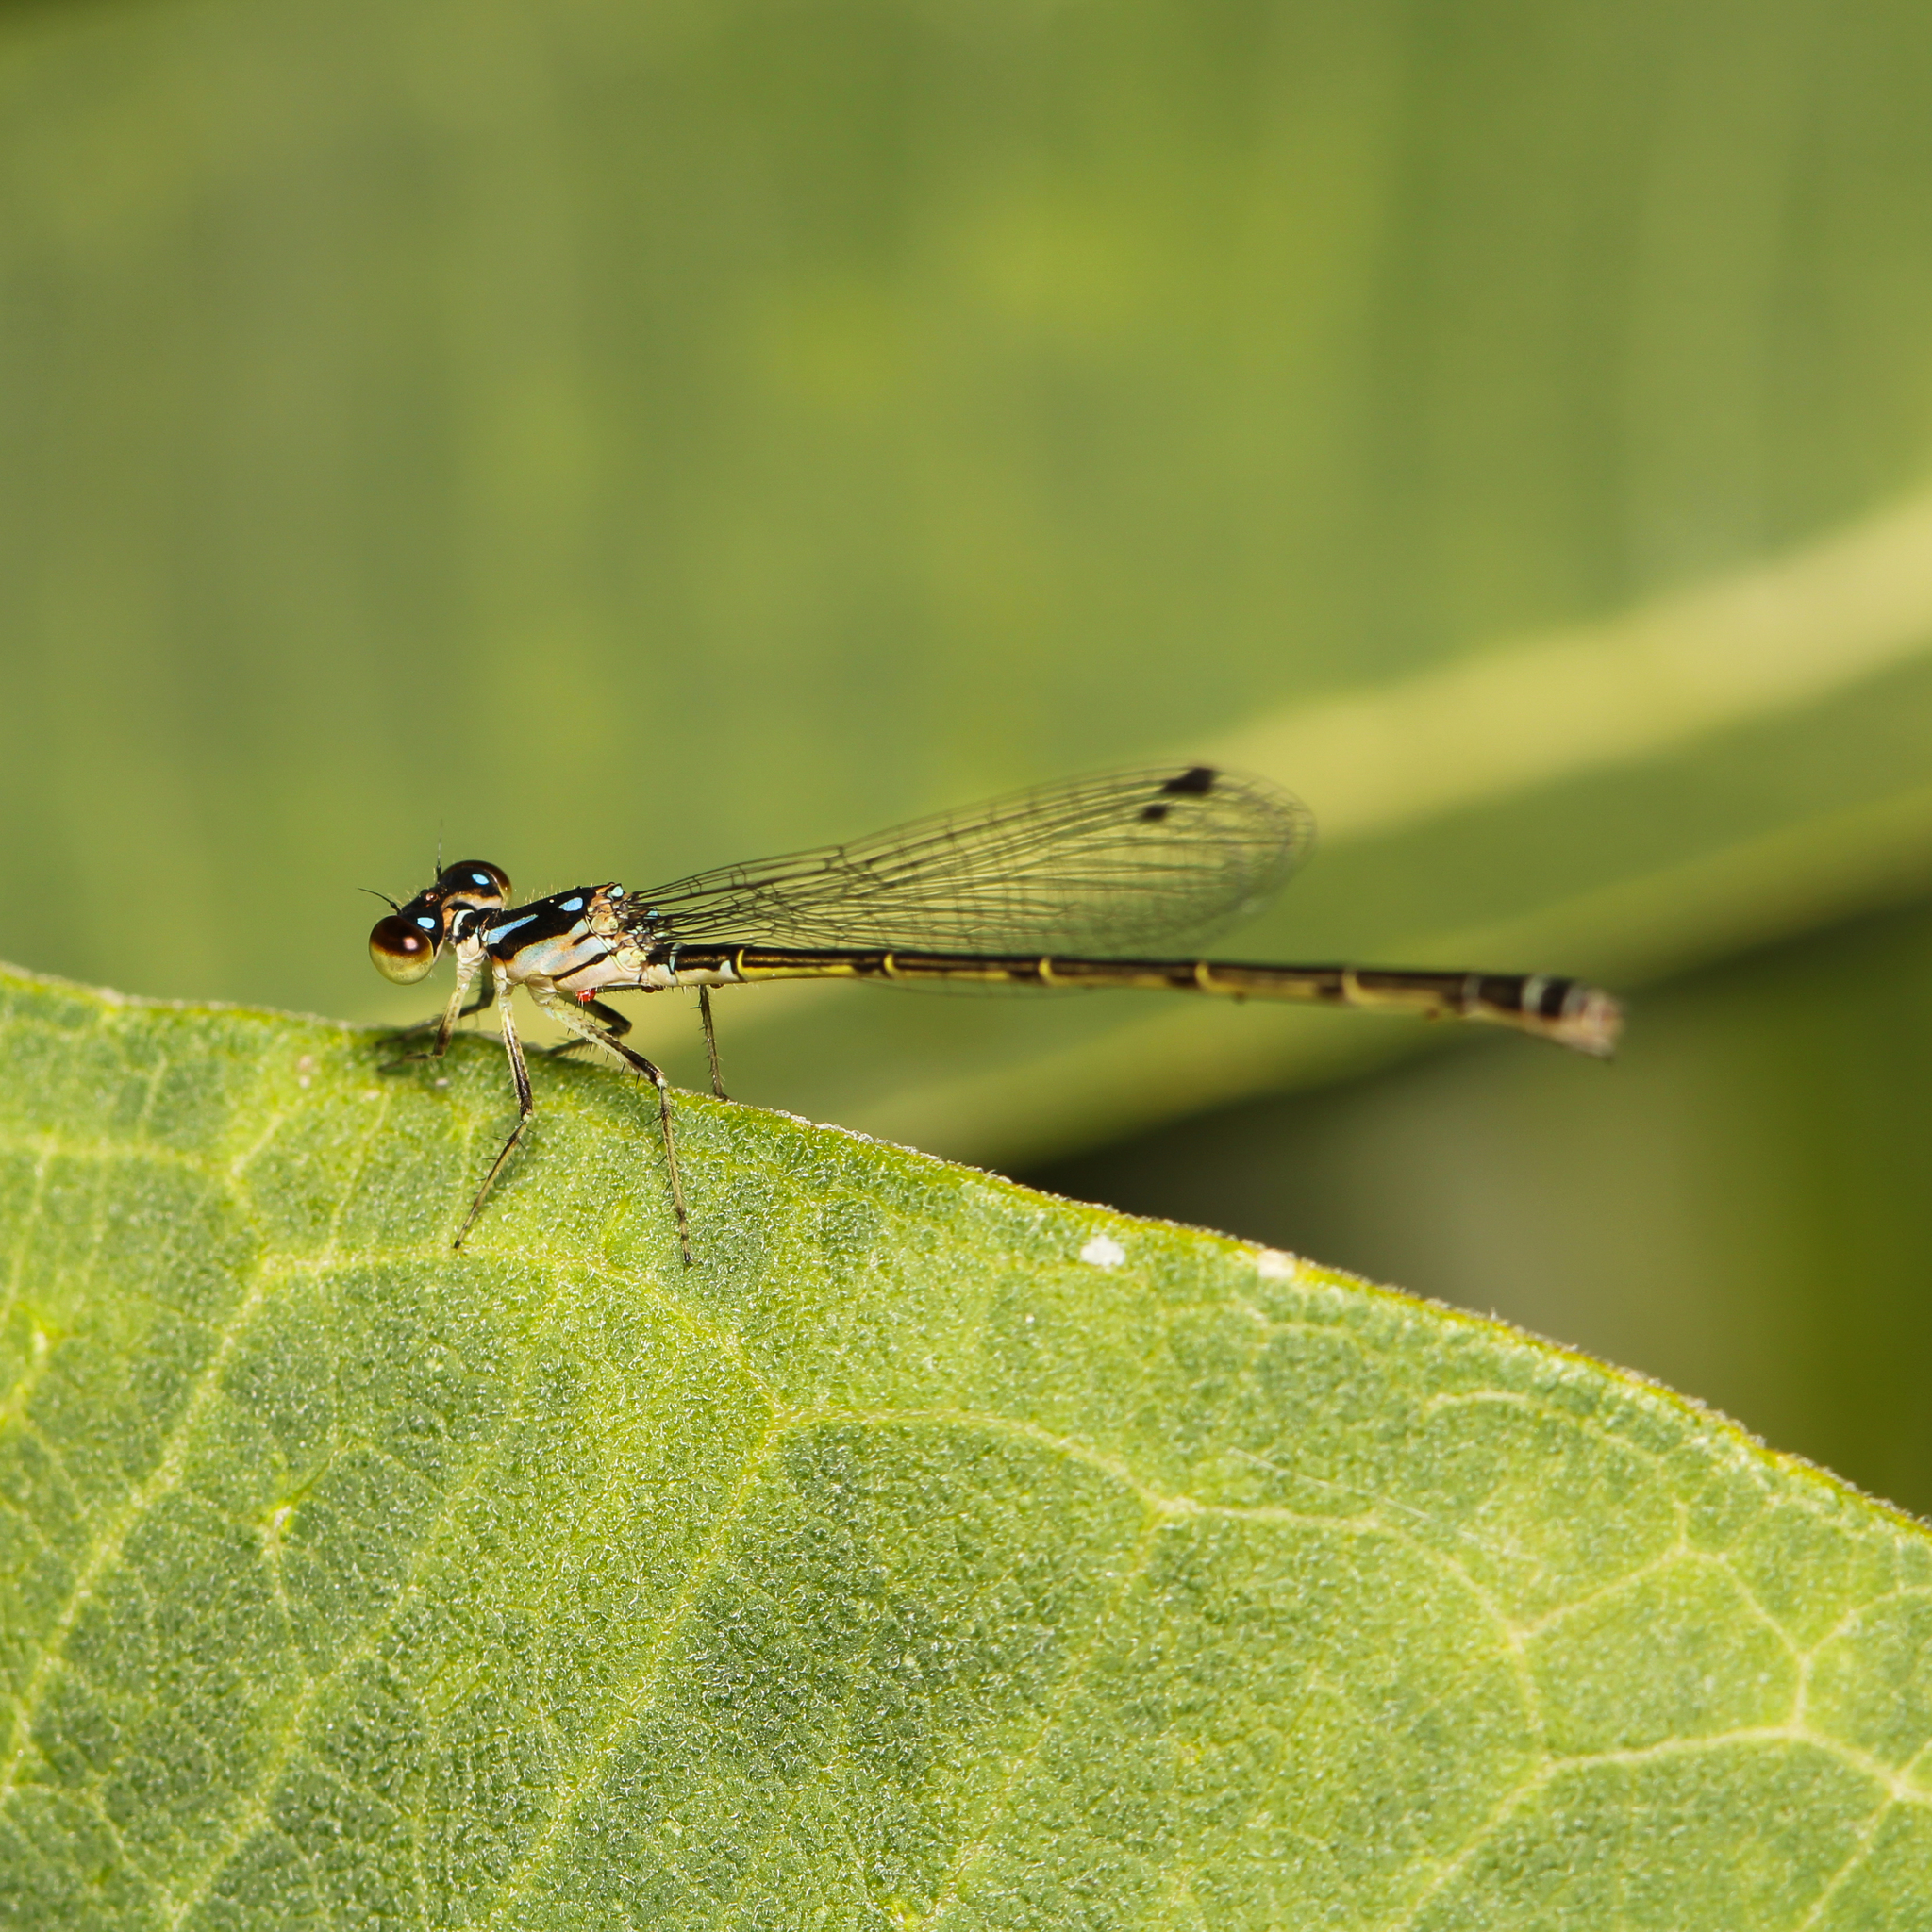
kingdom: Animalia
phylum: Arthropoda
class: Insecta
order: Odonata
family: Coenagrionidae
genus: Ischnura
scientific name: Ischnura posita
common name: Fragile forktail
